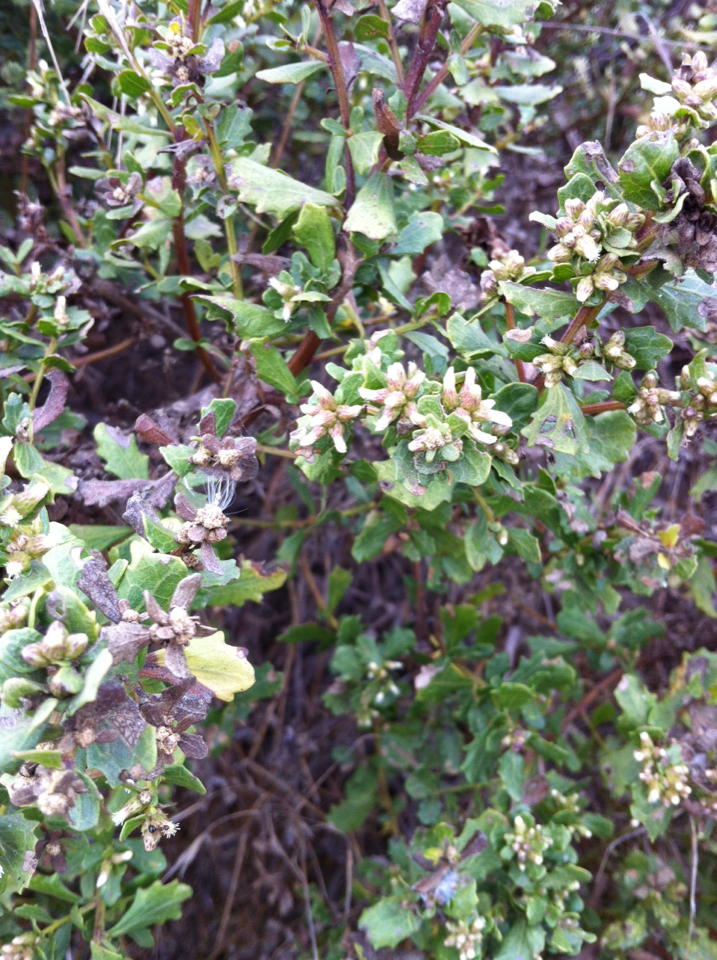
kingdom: Plantae
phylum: Tracheophyta
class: Magnoliopsida
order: Asterales
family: Asteraceae
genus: Baccharis
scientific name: Baccharis pilularis
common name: Coyotebrush
